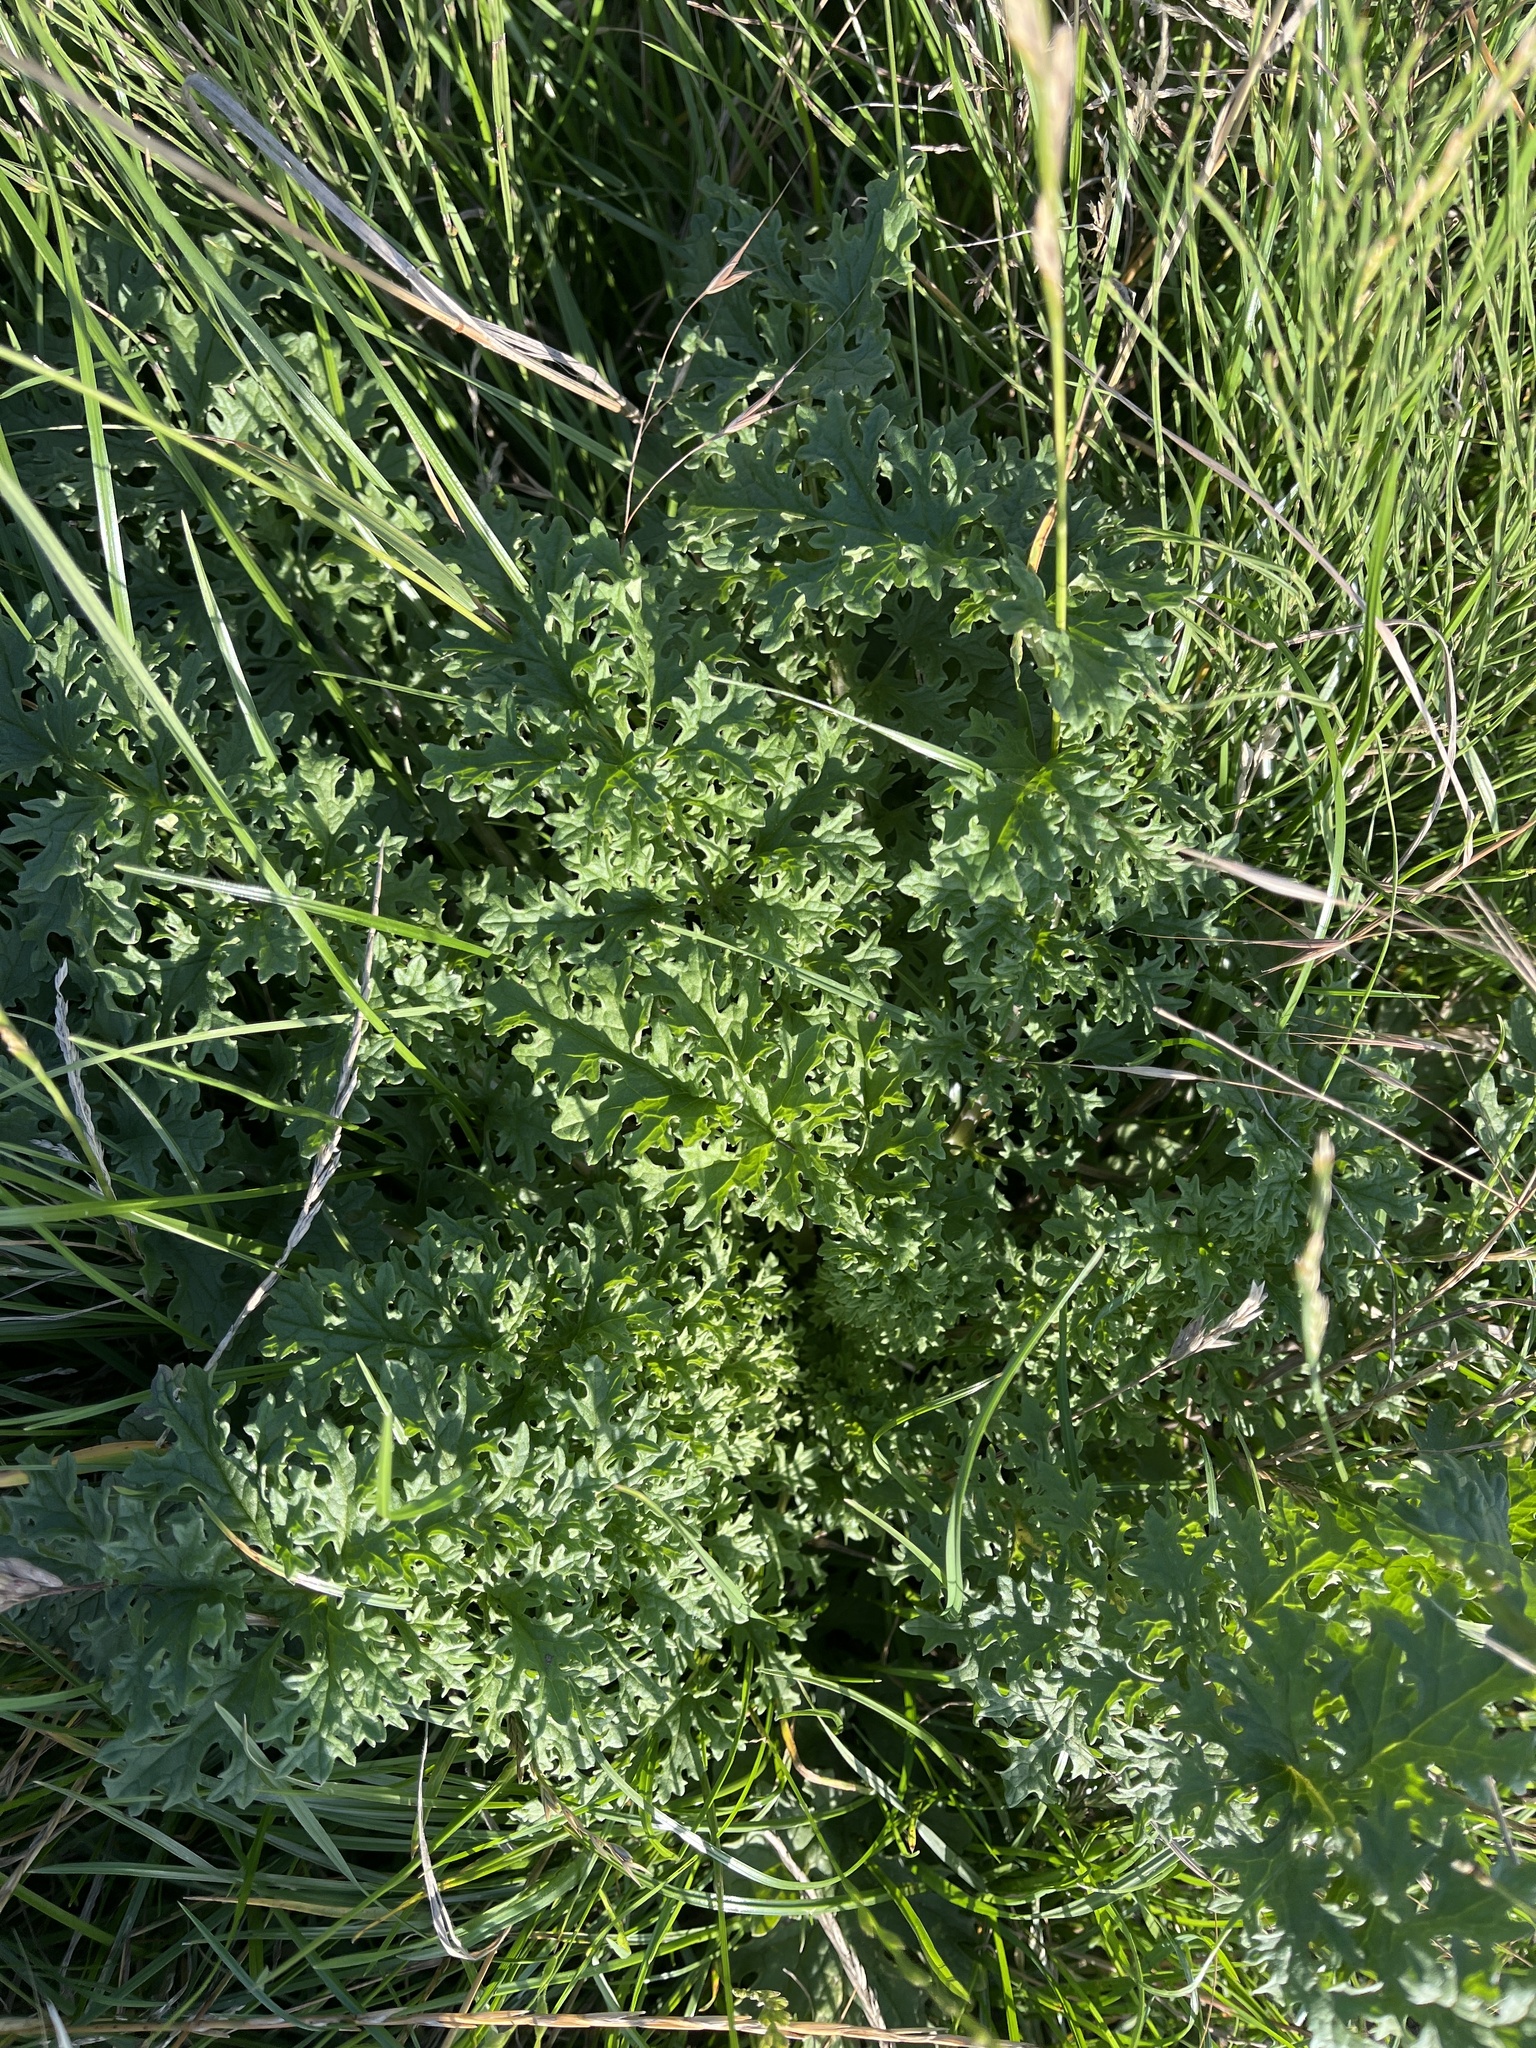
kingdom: Plantae
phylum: Tracheophyta
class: Magnoliopsida
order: Asterales
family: Asteraceae
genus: Jacobaea
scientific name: Jacobaea vulgaris
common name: Stinking willie
